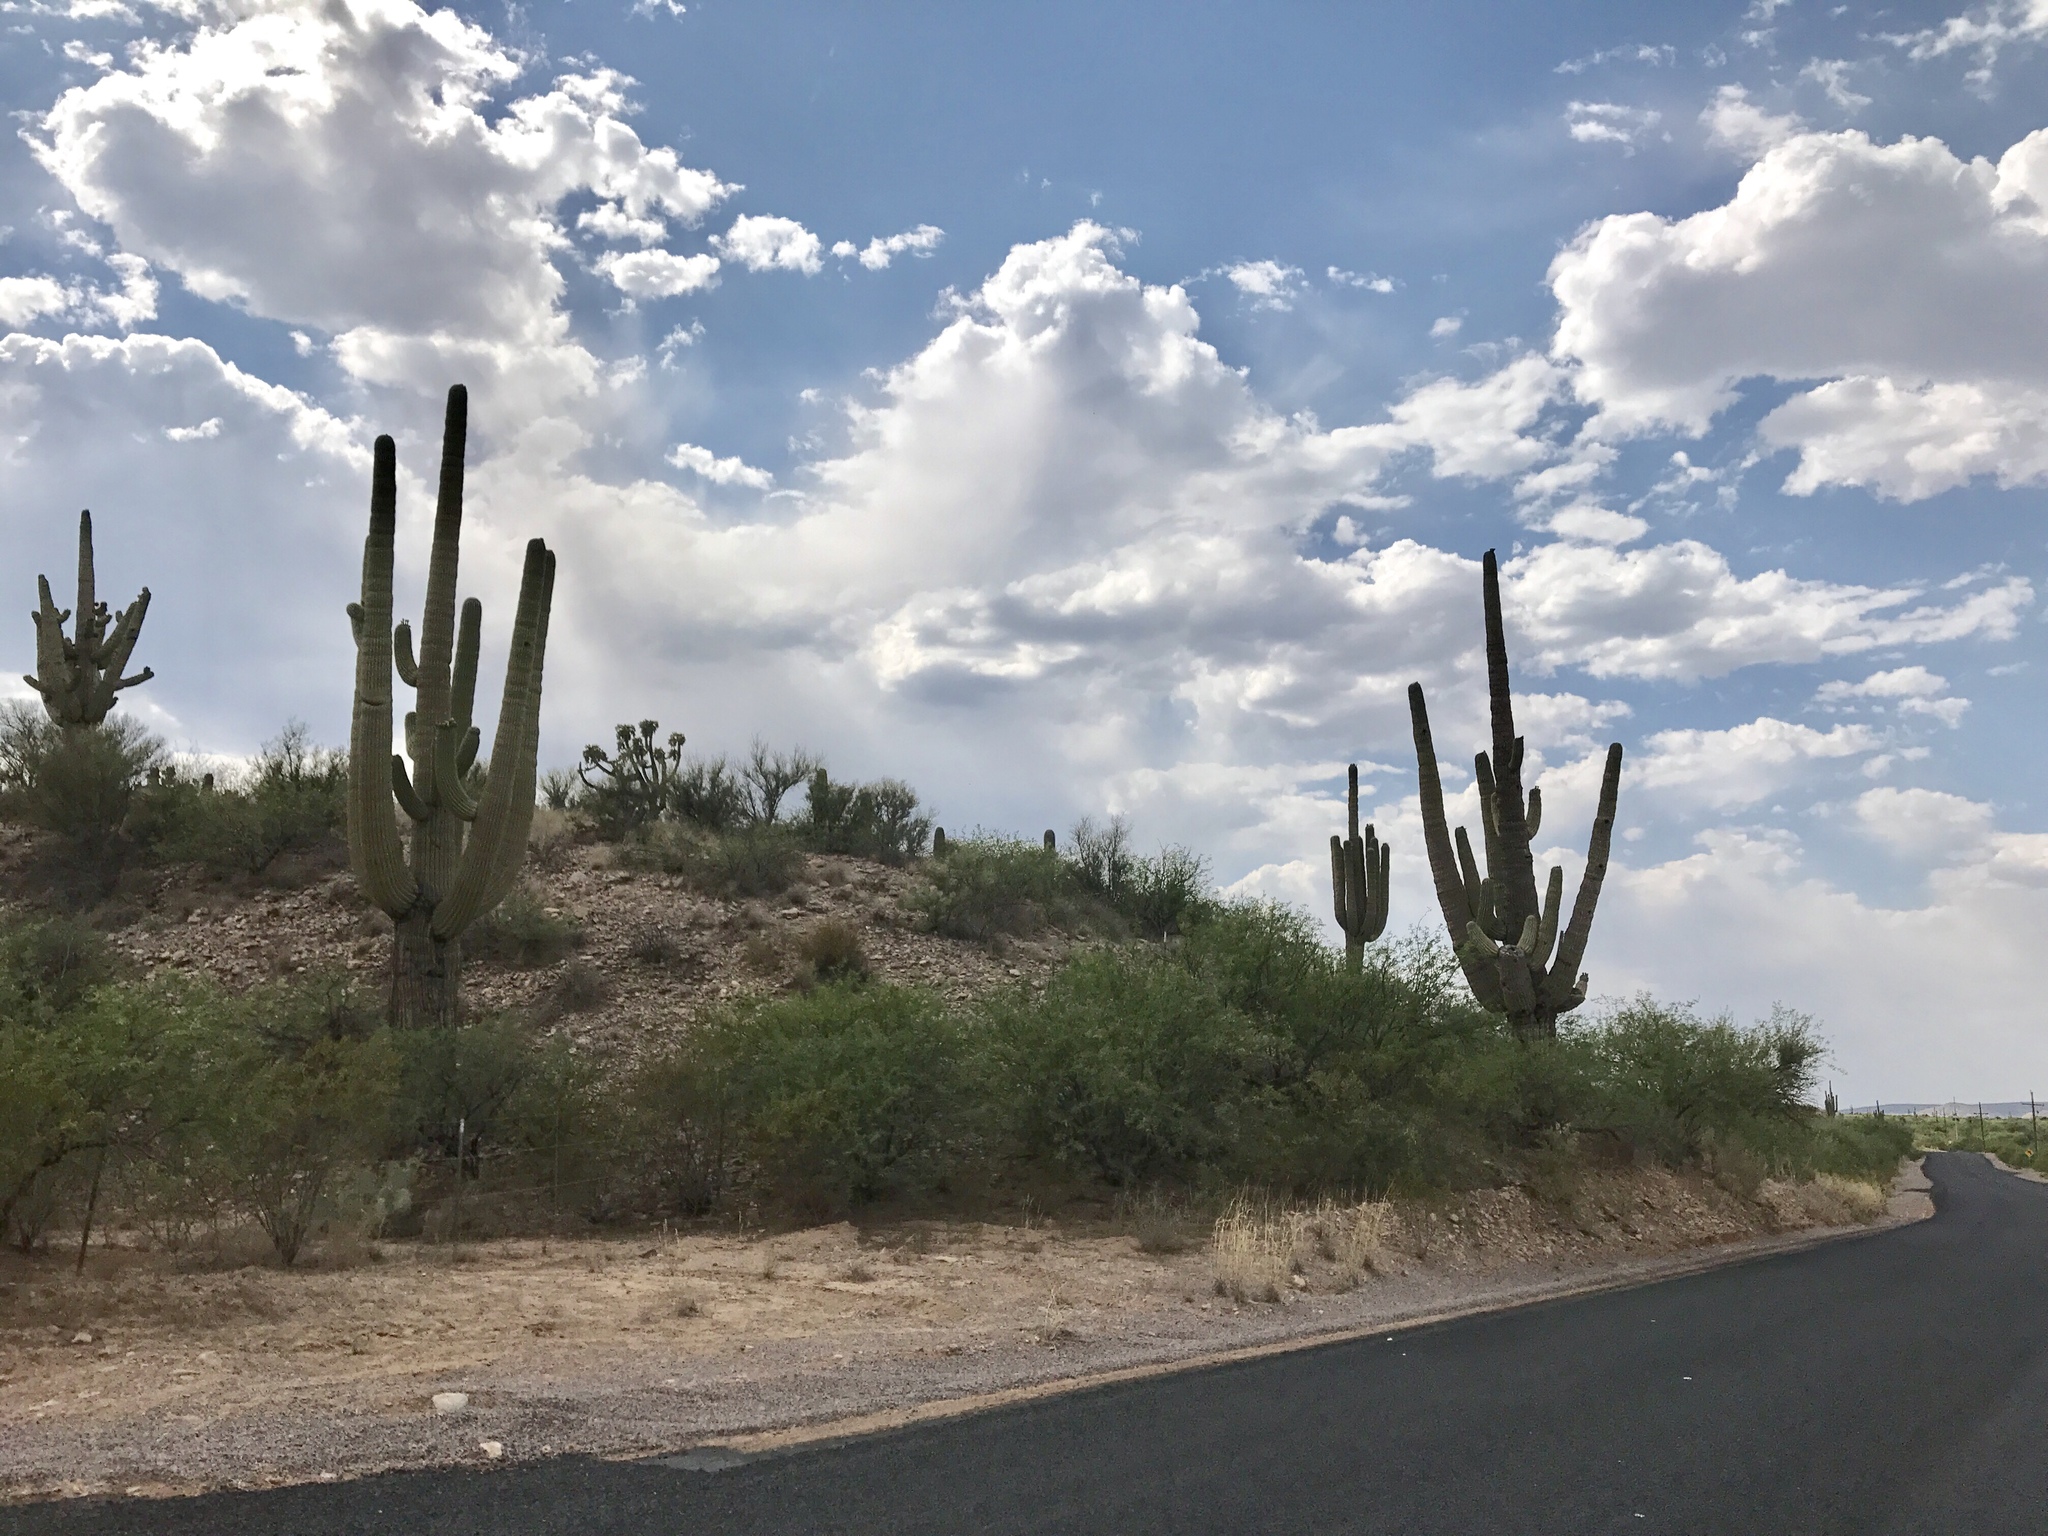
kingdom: Plantae
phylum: Tracheophyta
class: Magnoliopsida
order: Caryophyllales
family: Cactaceae
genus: Carnegiea
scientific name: Carnegiea gigantea
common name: Saguaro
